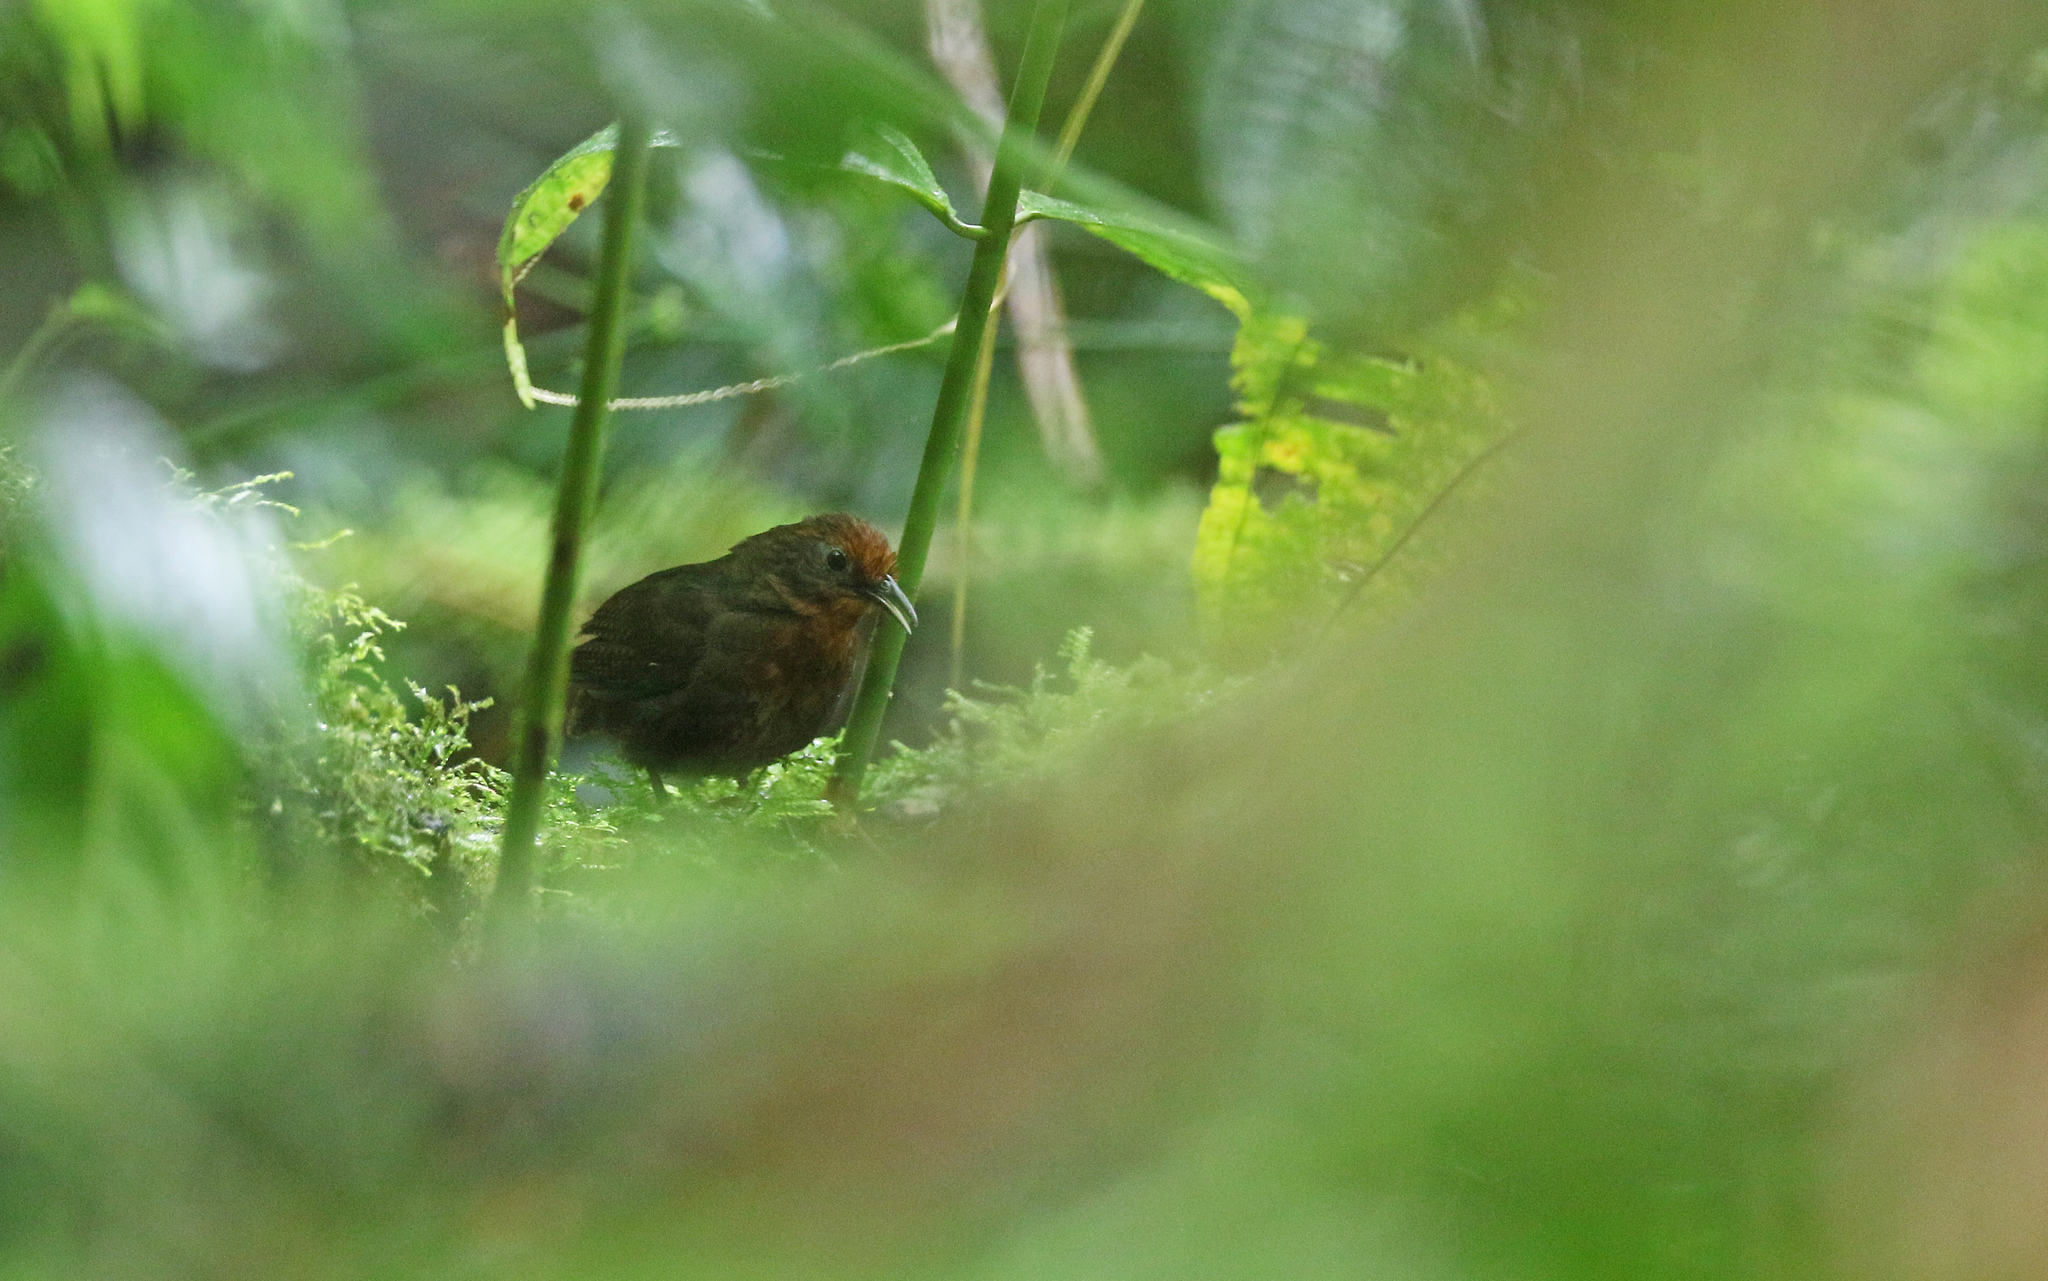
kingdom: Animalia
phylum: Chordata
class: Aves
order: Passeriformes
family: Troglodytidae
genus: Cyphorhinus
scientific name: Cyphorhinus arada
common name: Musician wren
